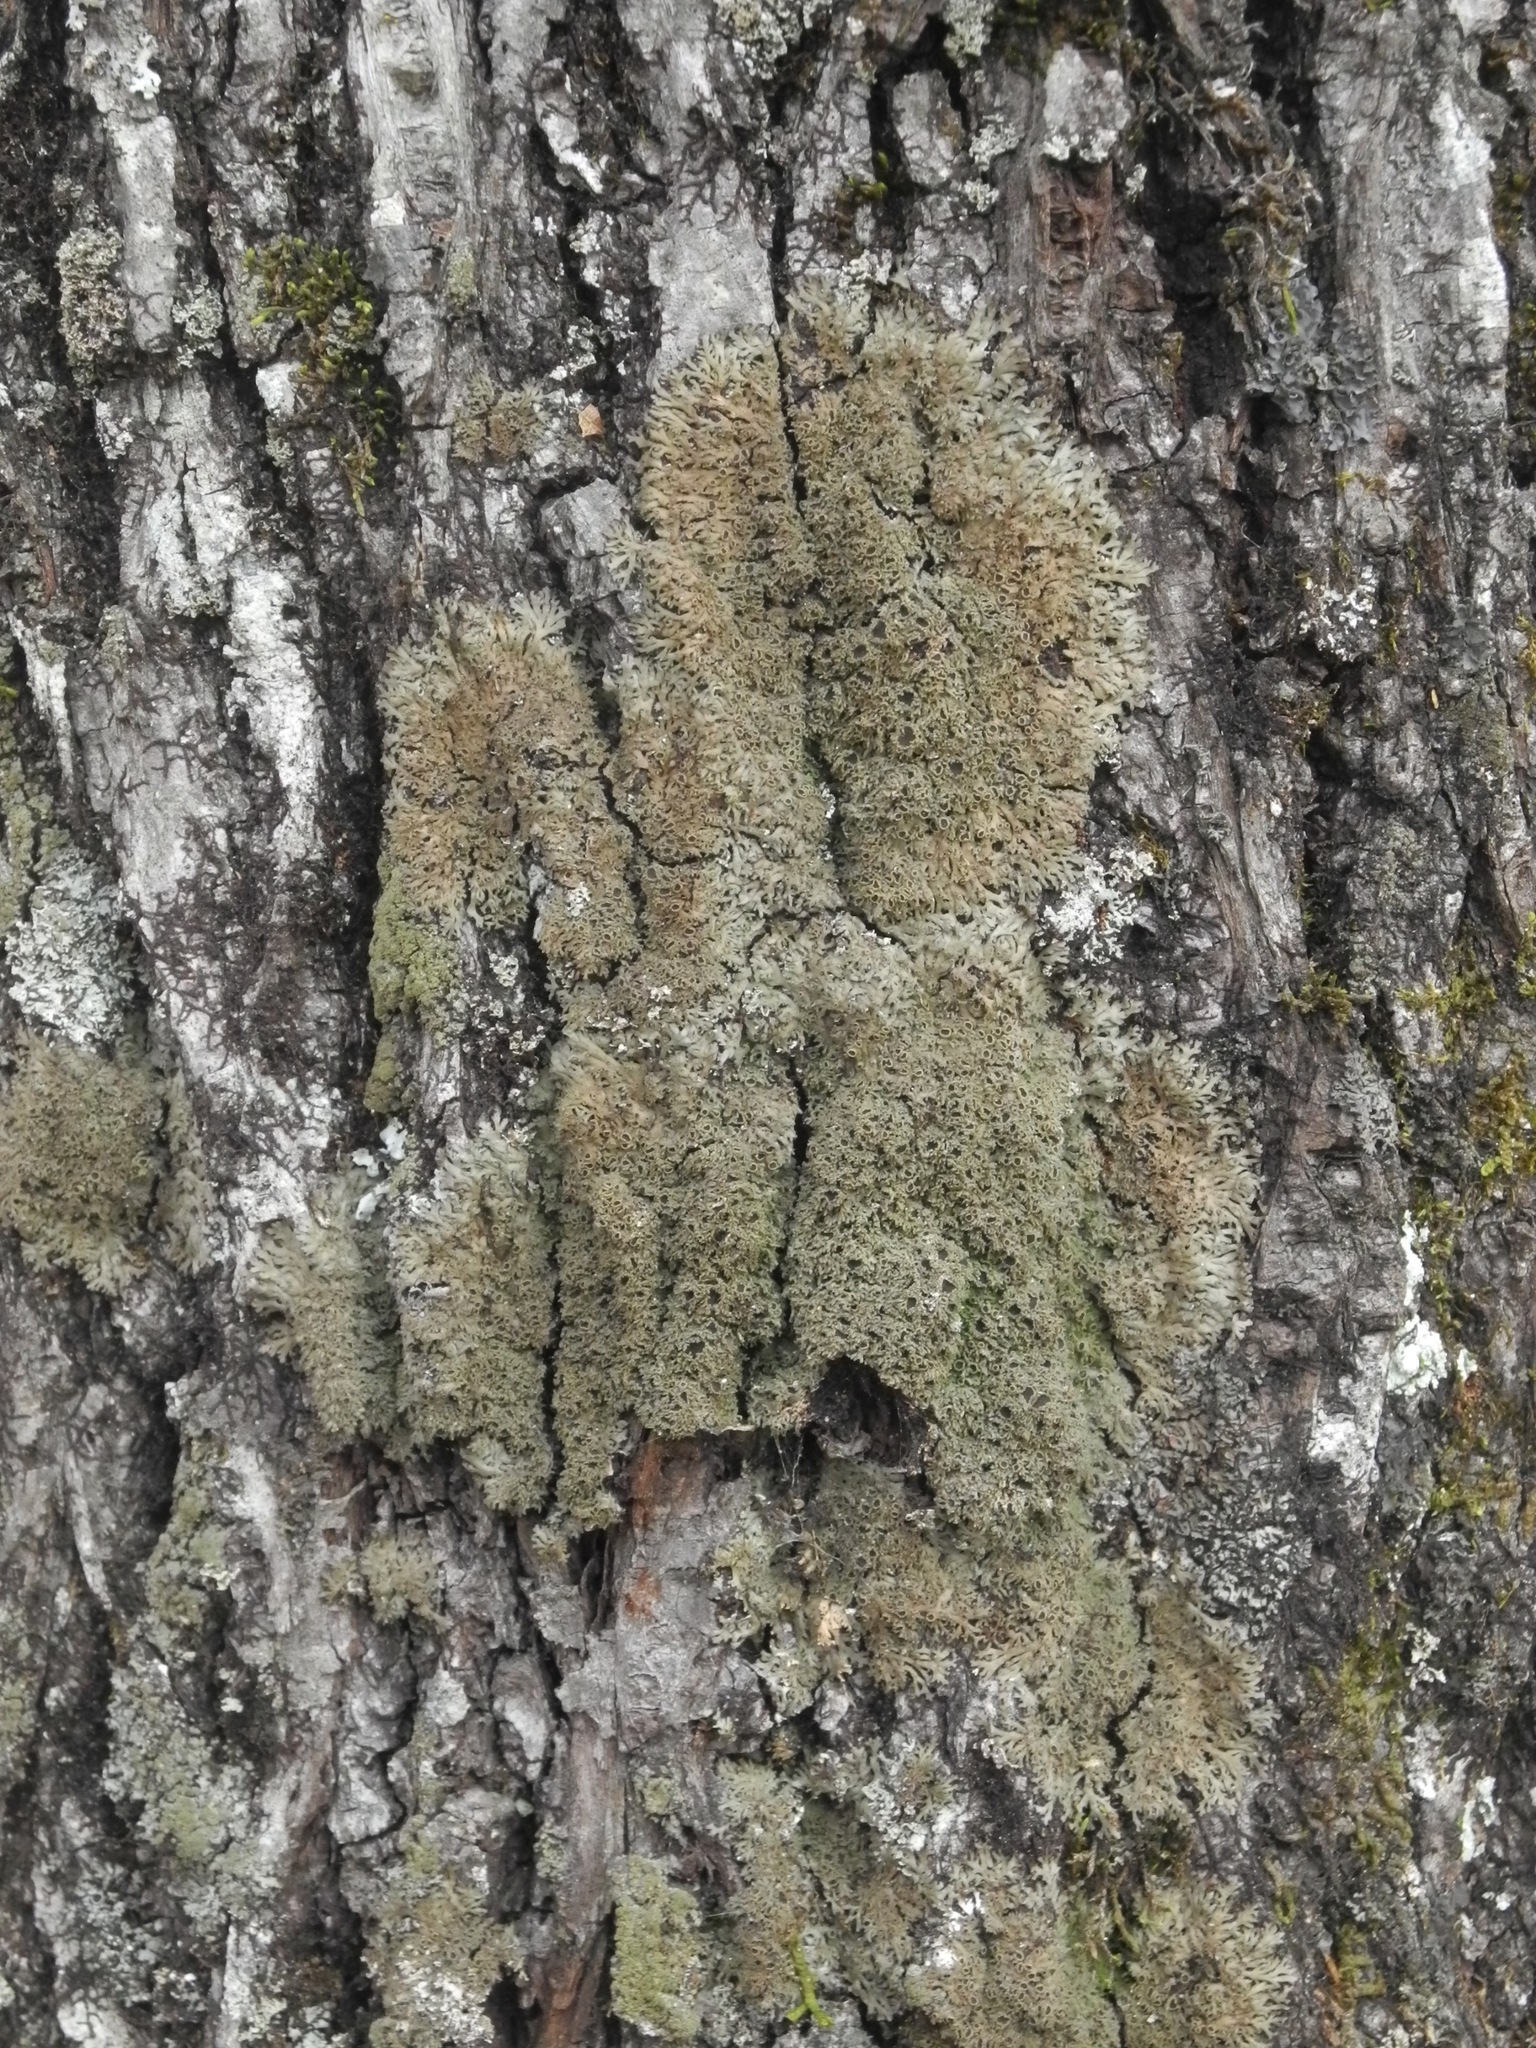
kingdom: Fungi
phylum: Ascomycota
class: Lecanoromycetes
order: Caliciales
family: Physciaceae
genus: Kurokawia
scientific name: Kurokawia palmulata
